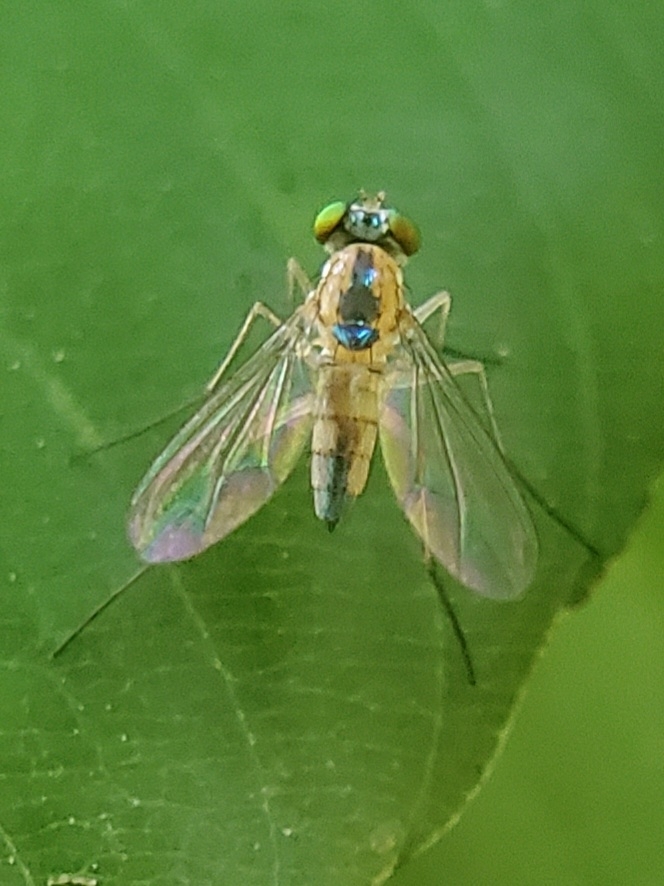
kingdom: Animalia
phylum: Arthropoda
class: Insecta
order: Diptera
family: Dolichopodidae
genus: Amblypsilopus
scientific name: Amblypsilopus dorsalis
